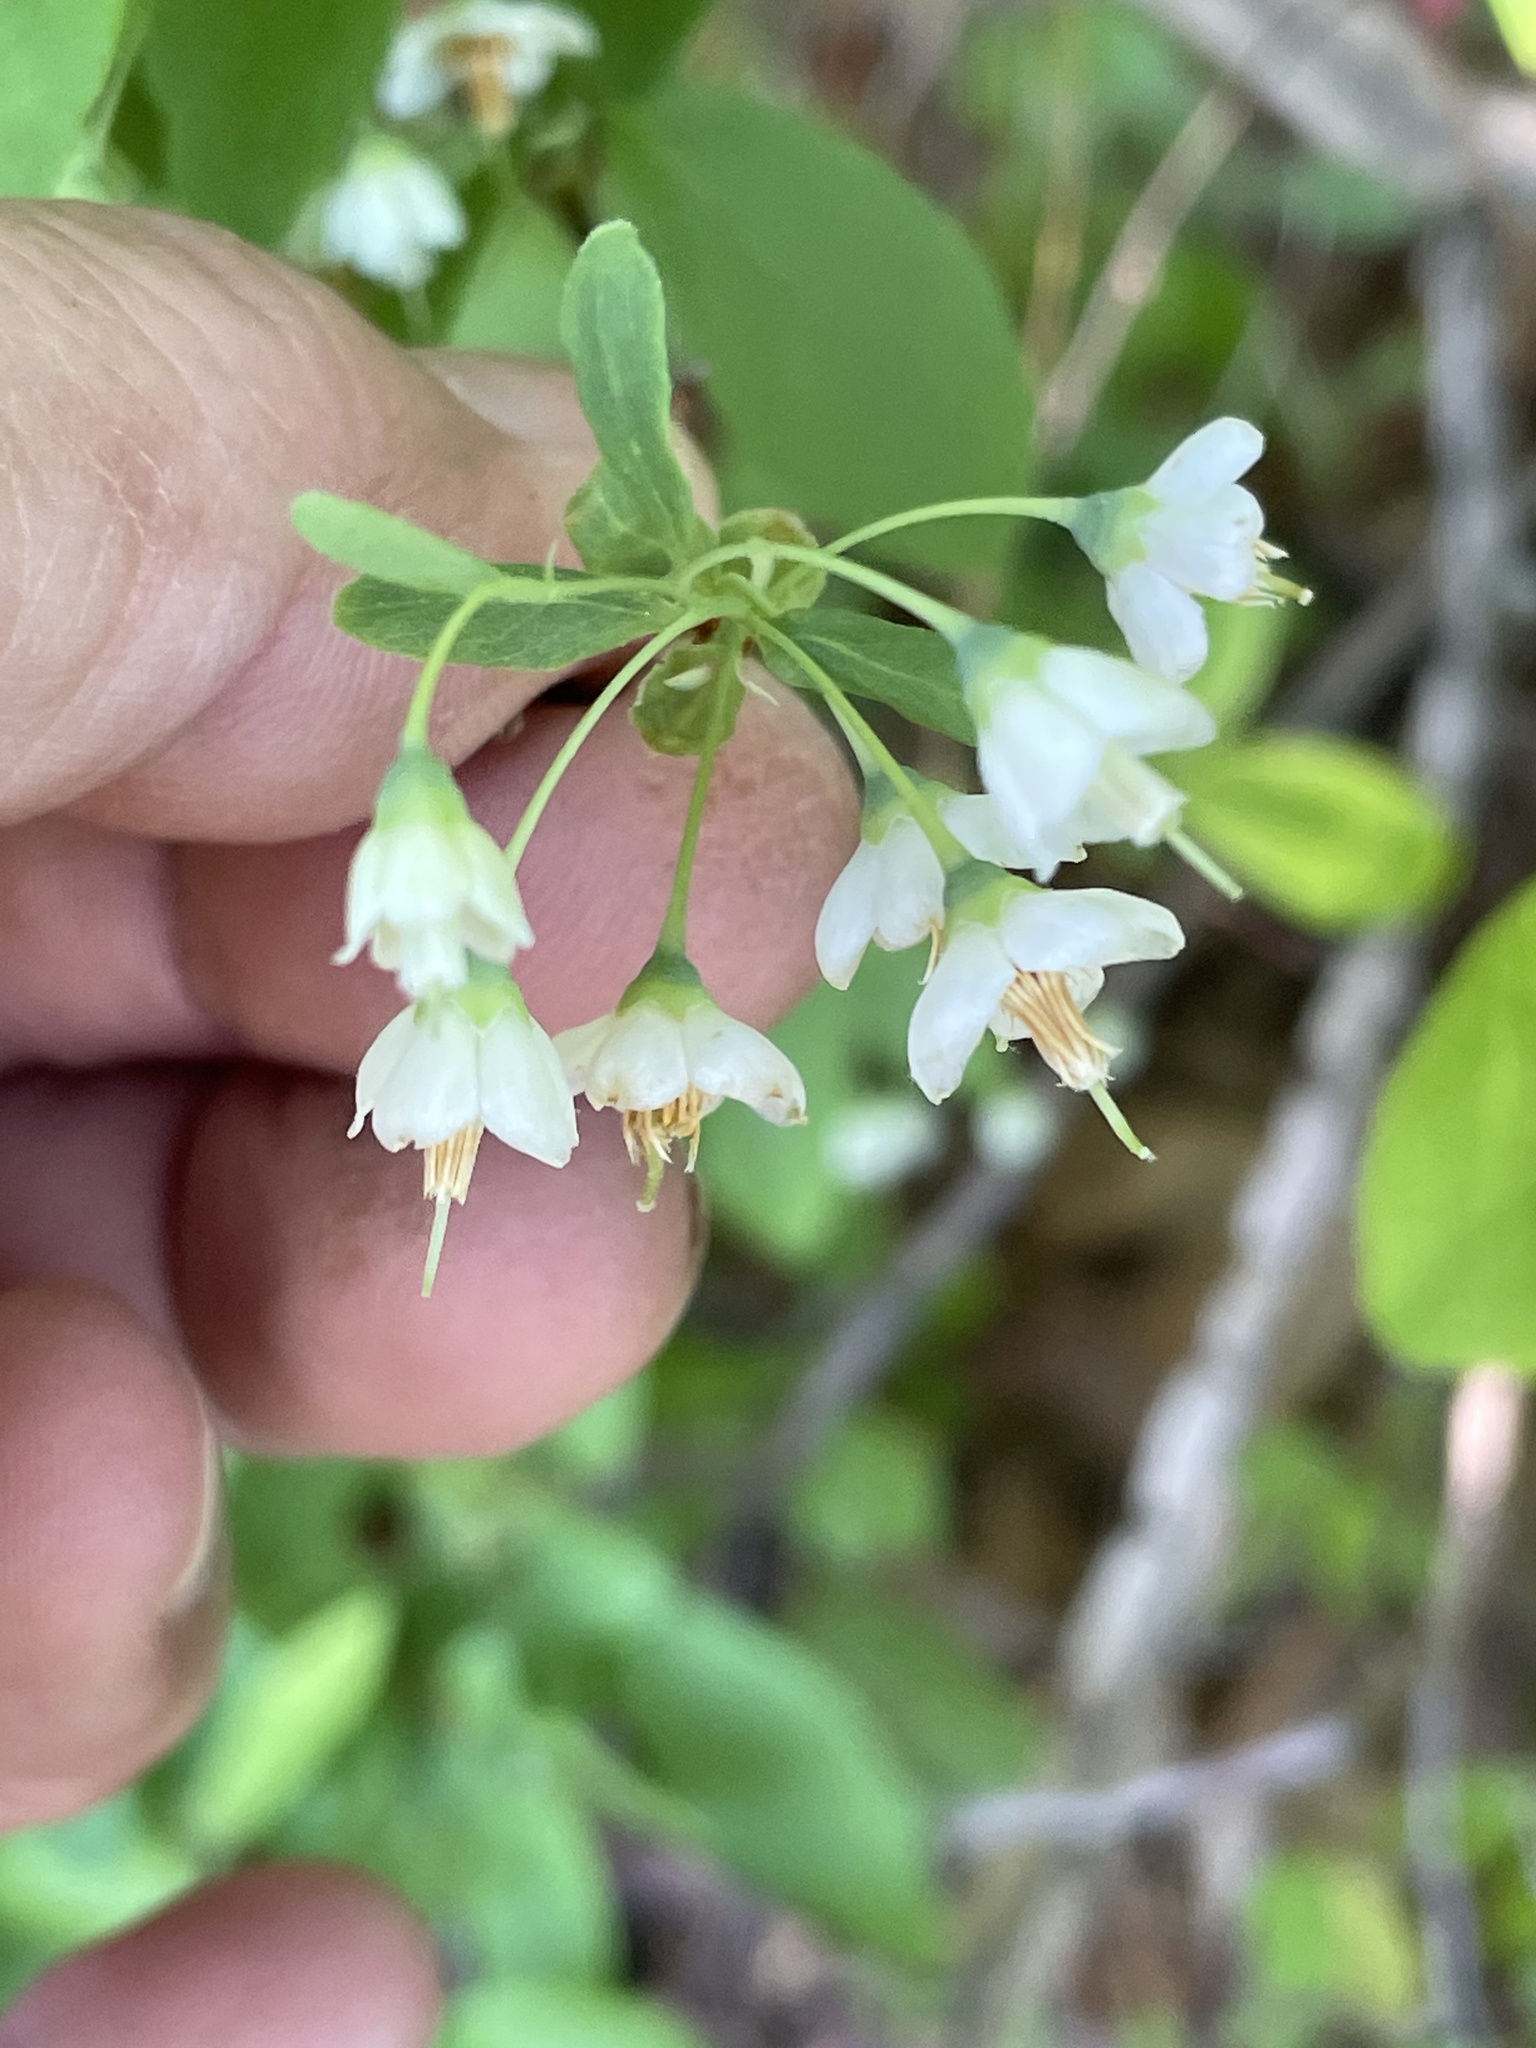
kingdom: Plantae
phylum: Tracheophyta
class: Magnoliopsida
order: Ericales
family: Ericaceae
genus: Vaccinium
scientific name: Vaccinium stamineum
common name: Deerberry
